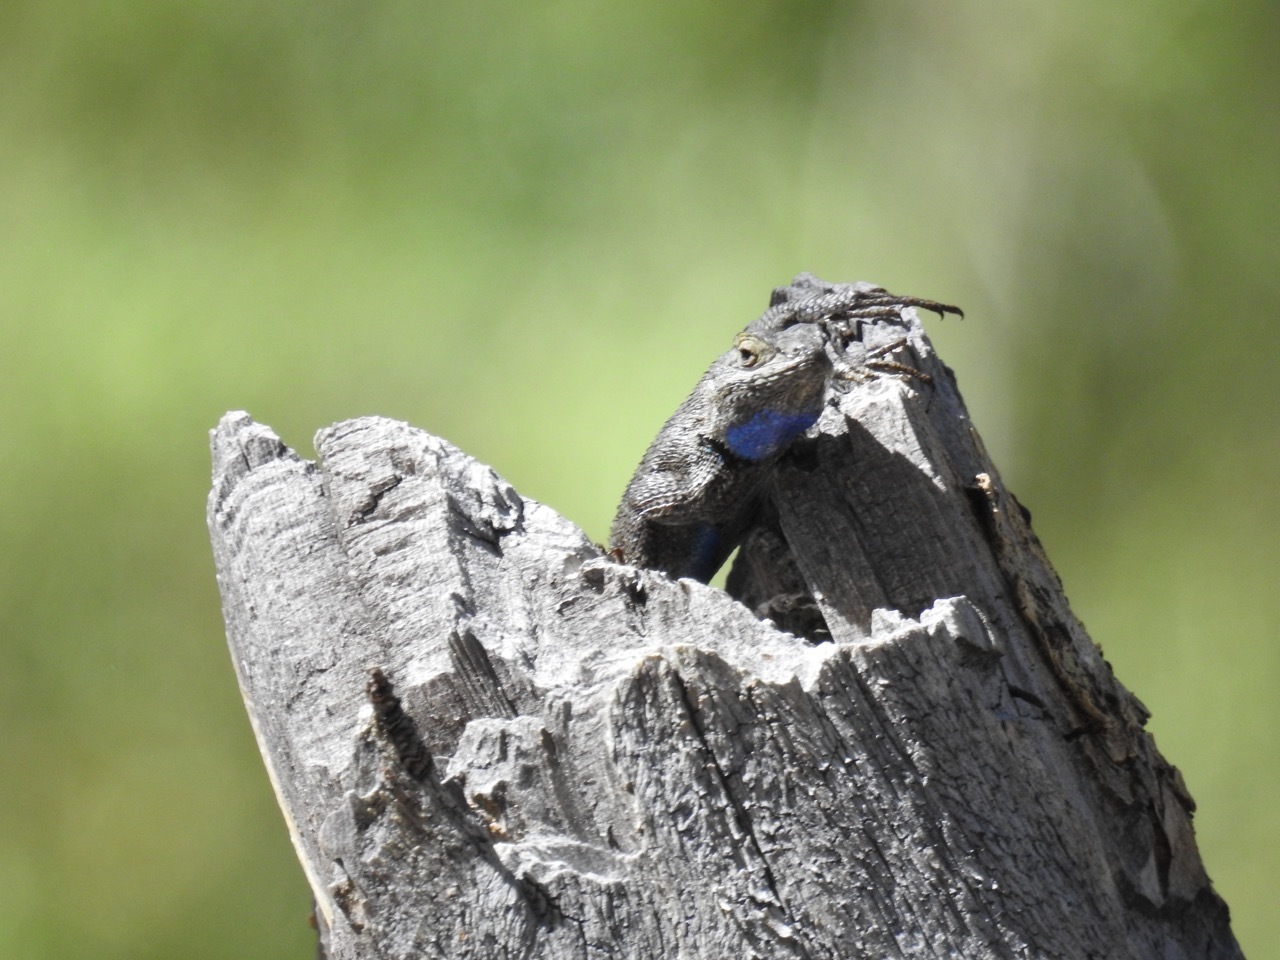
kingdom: Animalia
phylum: Chordata
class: Squamata
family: Phrynosomatidae
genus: Sceloporus
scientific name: Sceloporus occidentalis
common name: Western fence lizard
